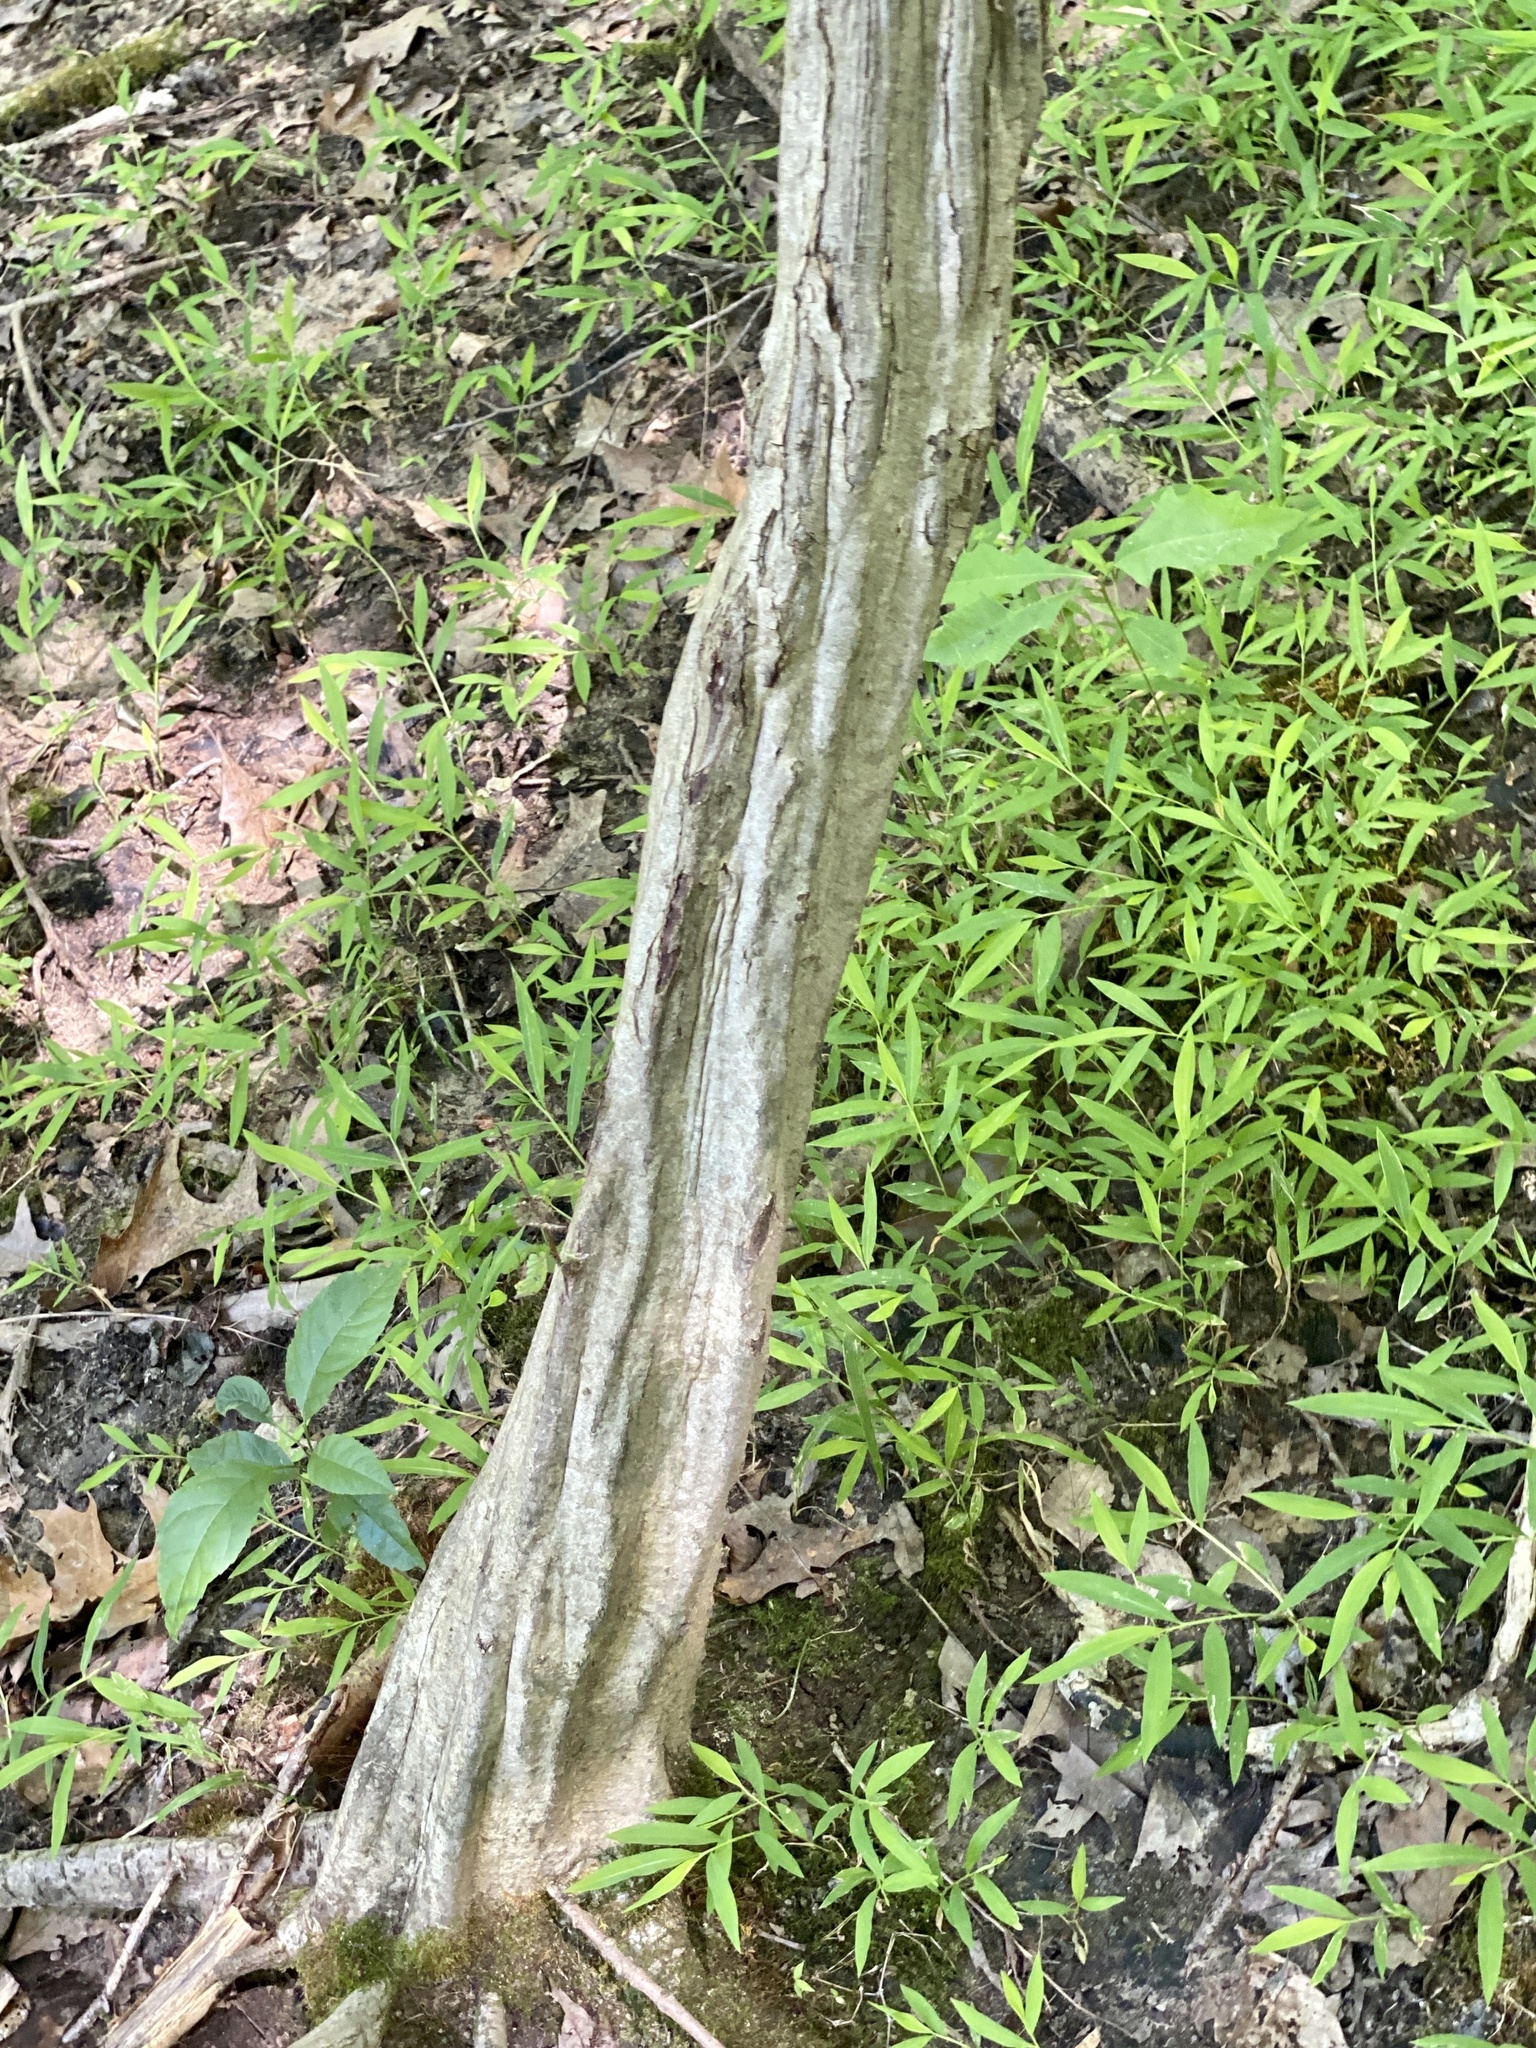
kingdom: Plantae
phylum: Tracheophyta
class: Magnoliopsida
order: Fagales
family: Betulaceae
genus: Carpinus
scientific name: Carpinus caroliniana
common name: American hornbeam
